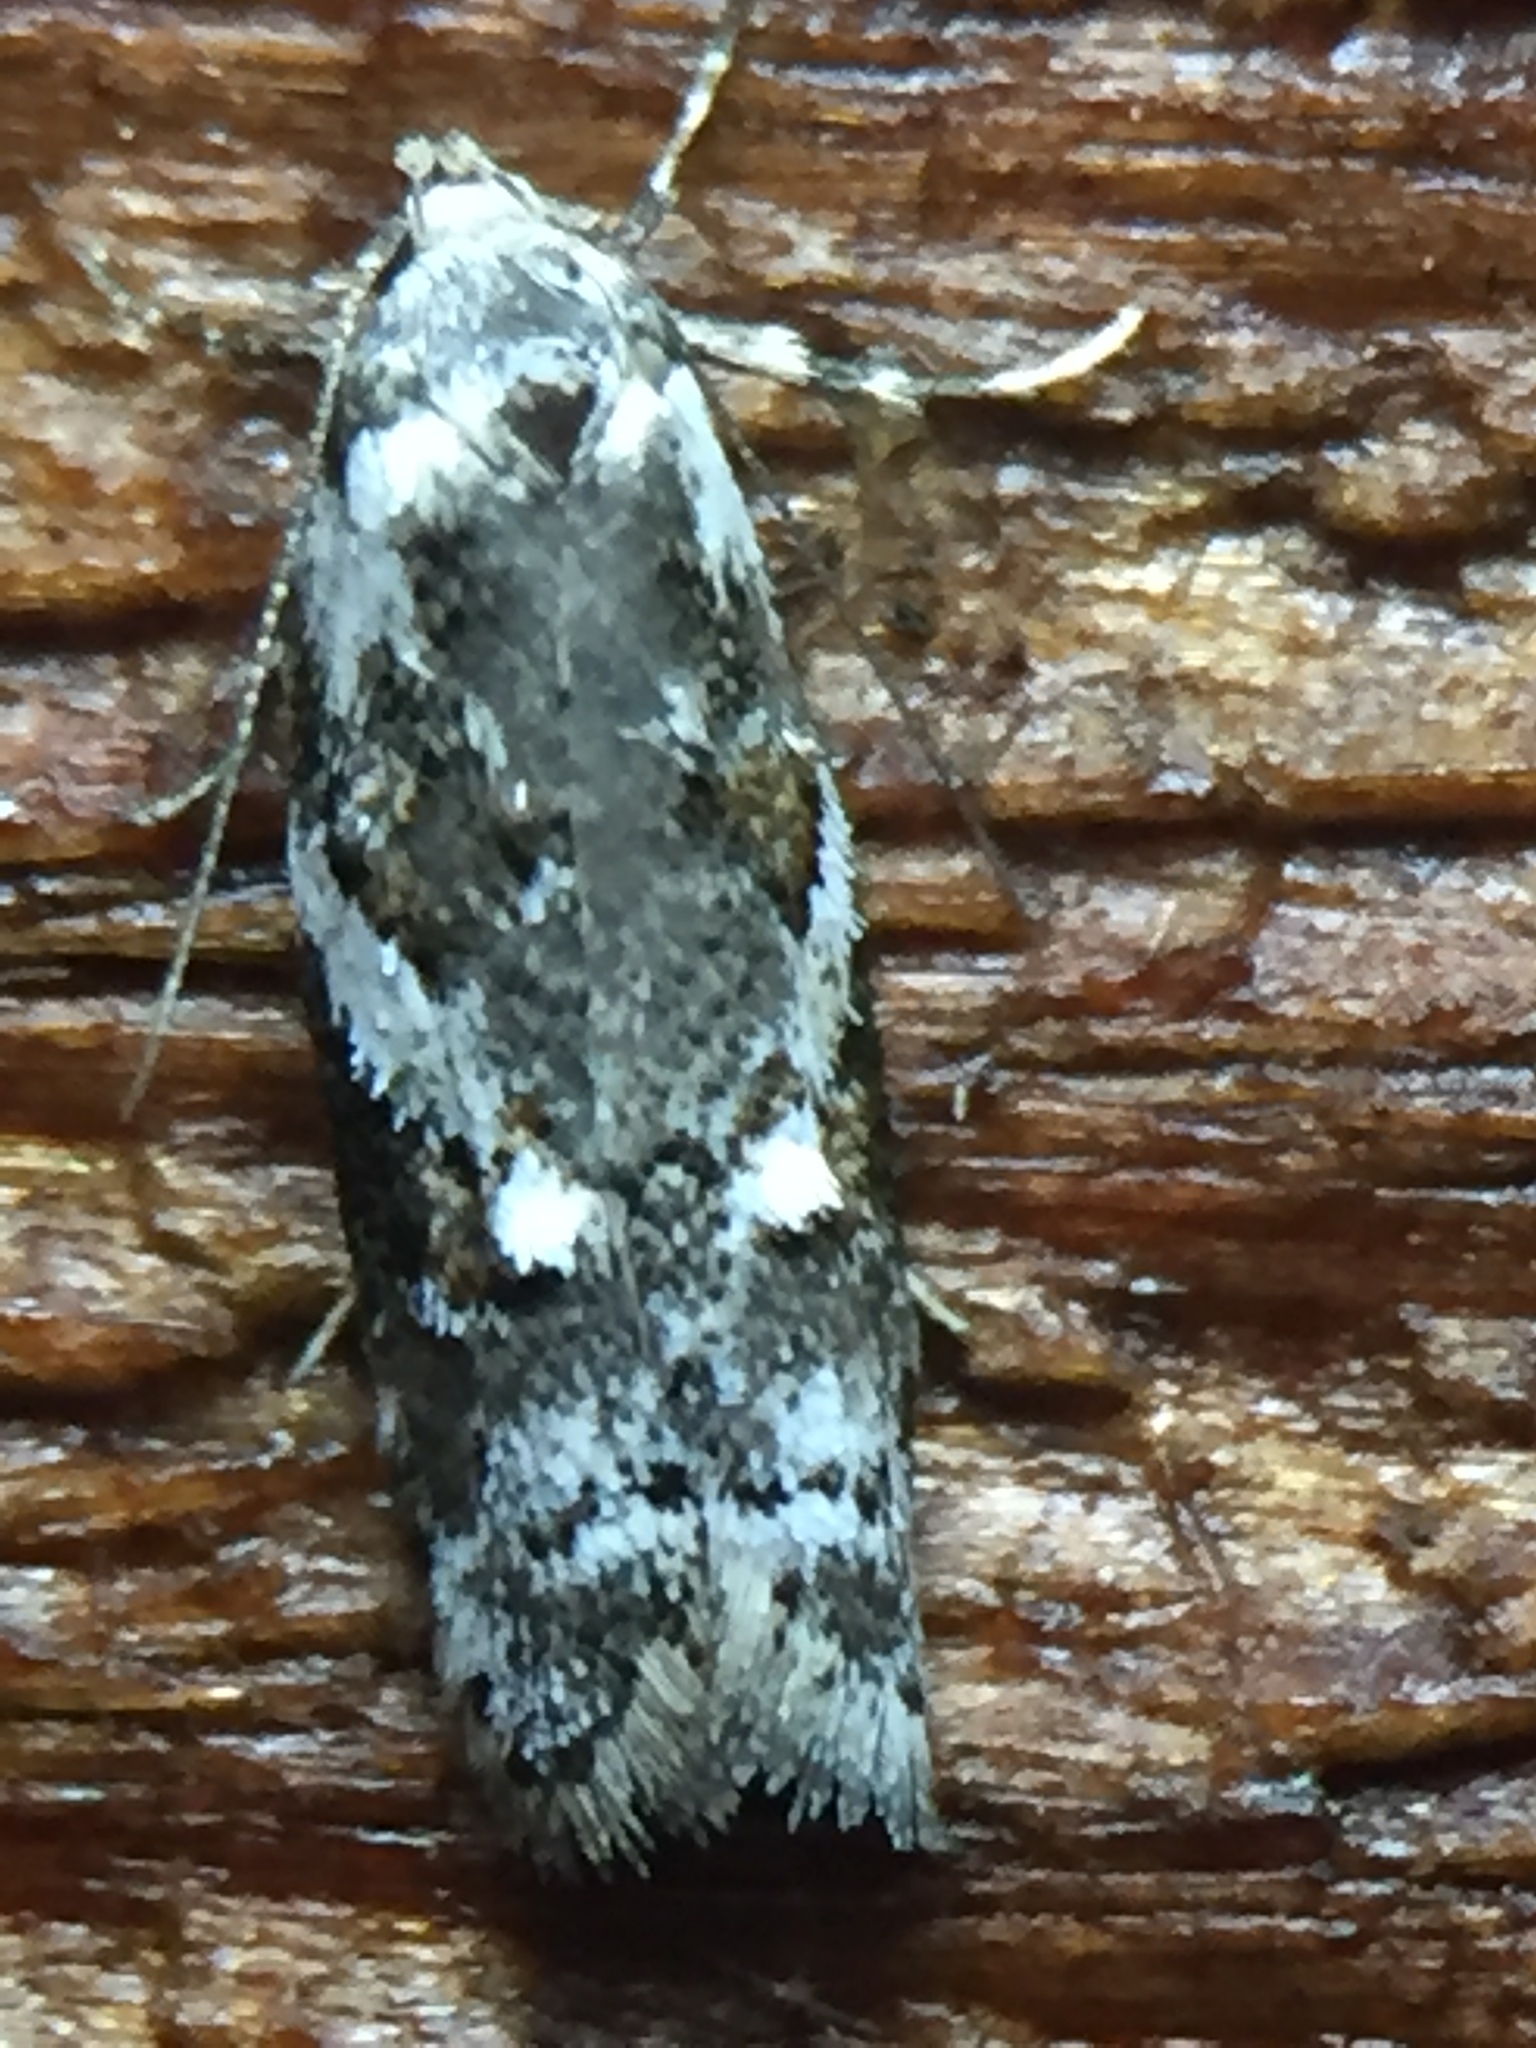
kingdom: Animalia
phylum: Arthropoda
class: Insecta
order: Lepidoptera
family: Oecophoridae
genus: Trachypepla
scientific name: Trachypepla galaxias
